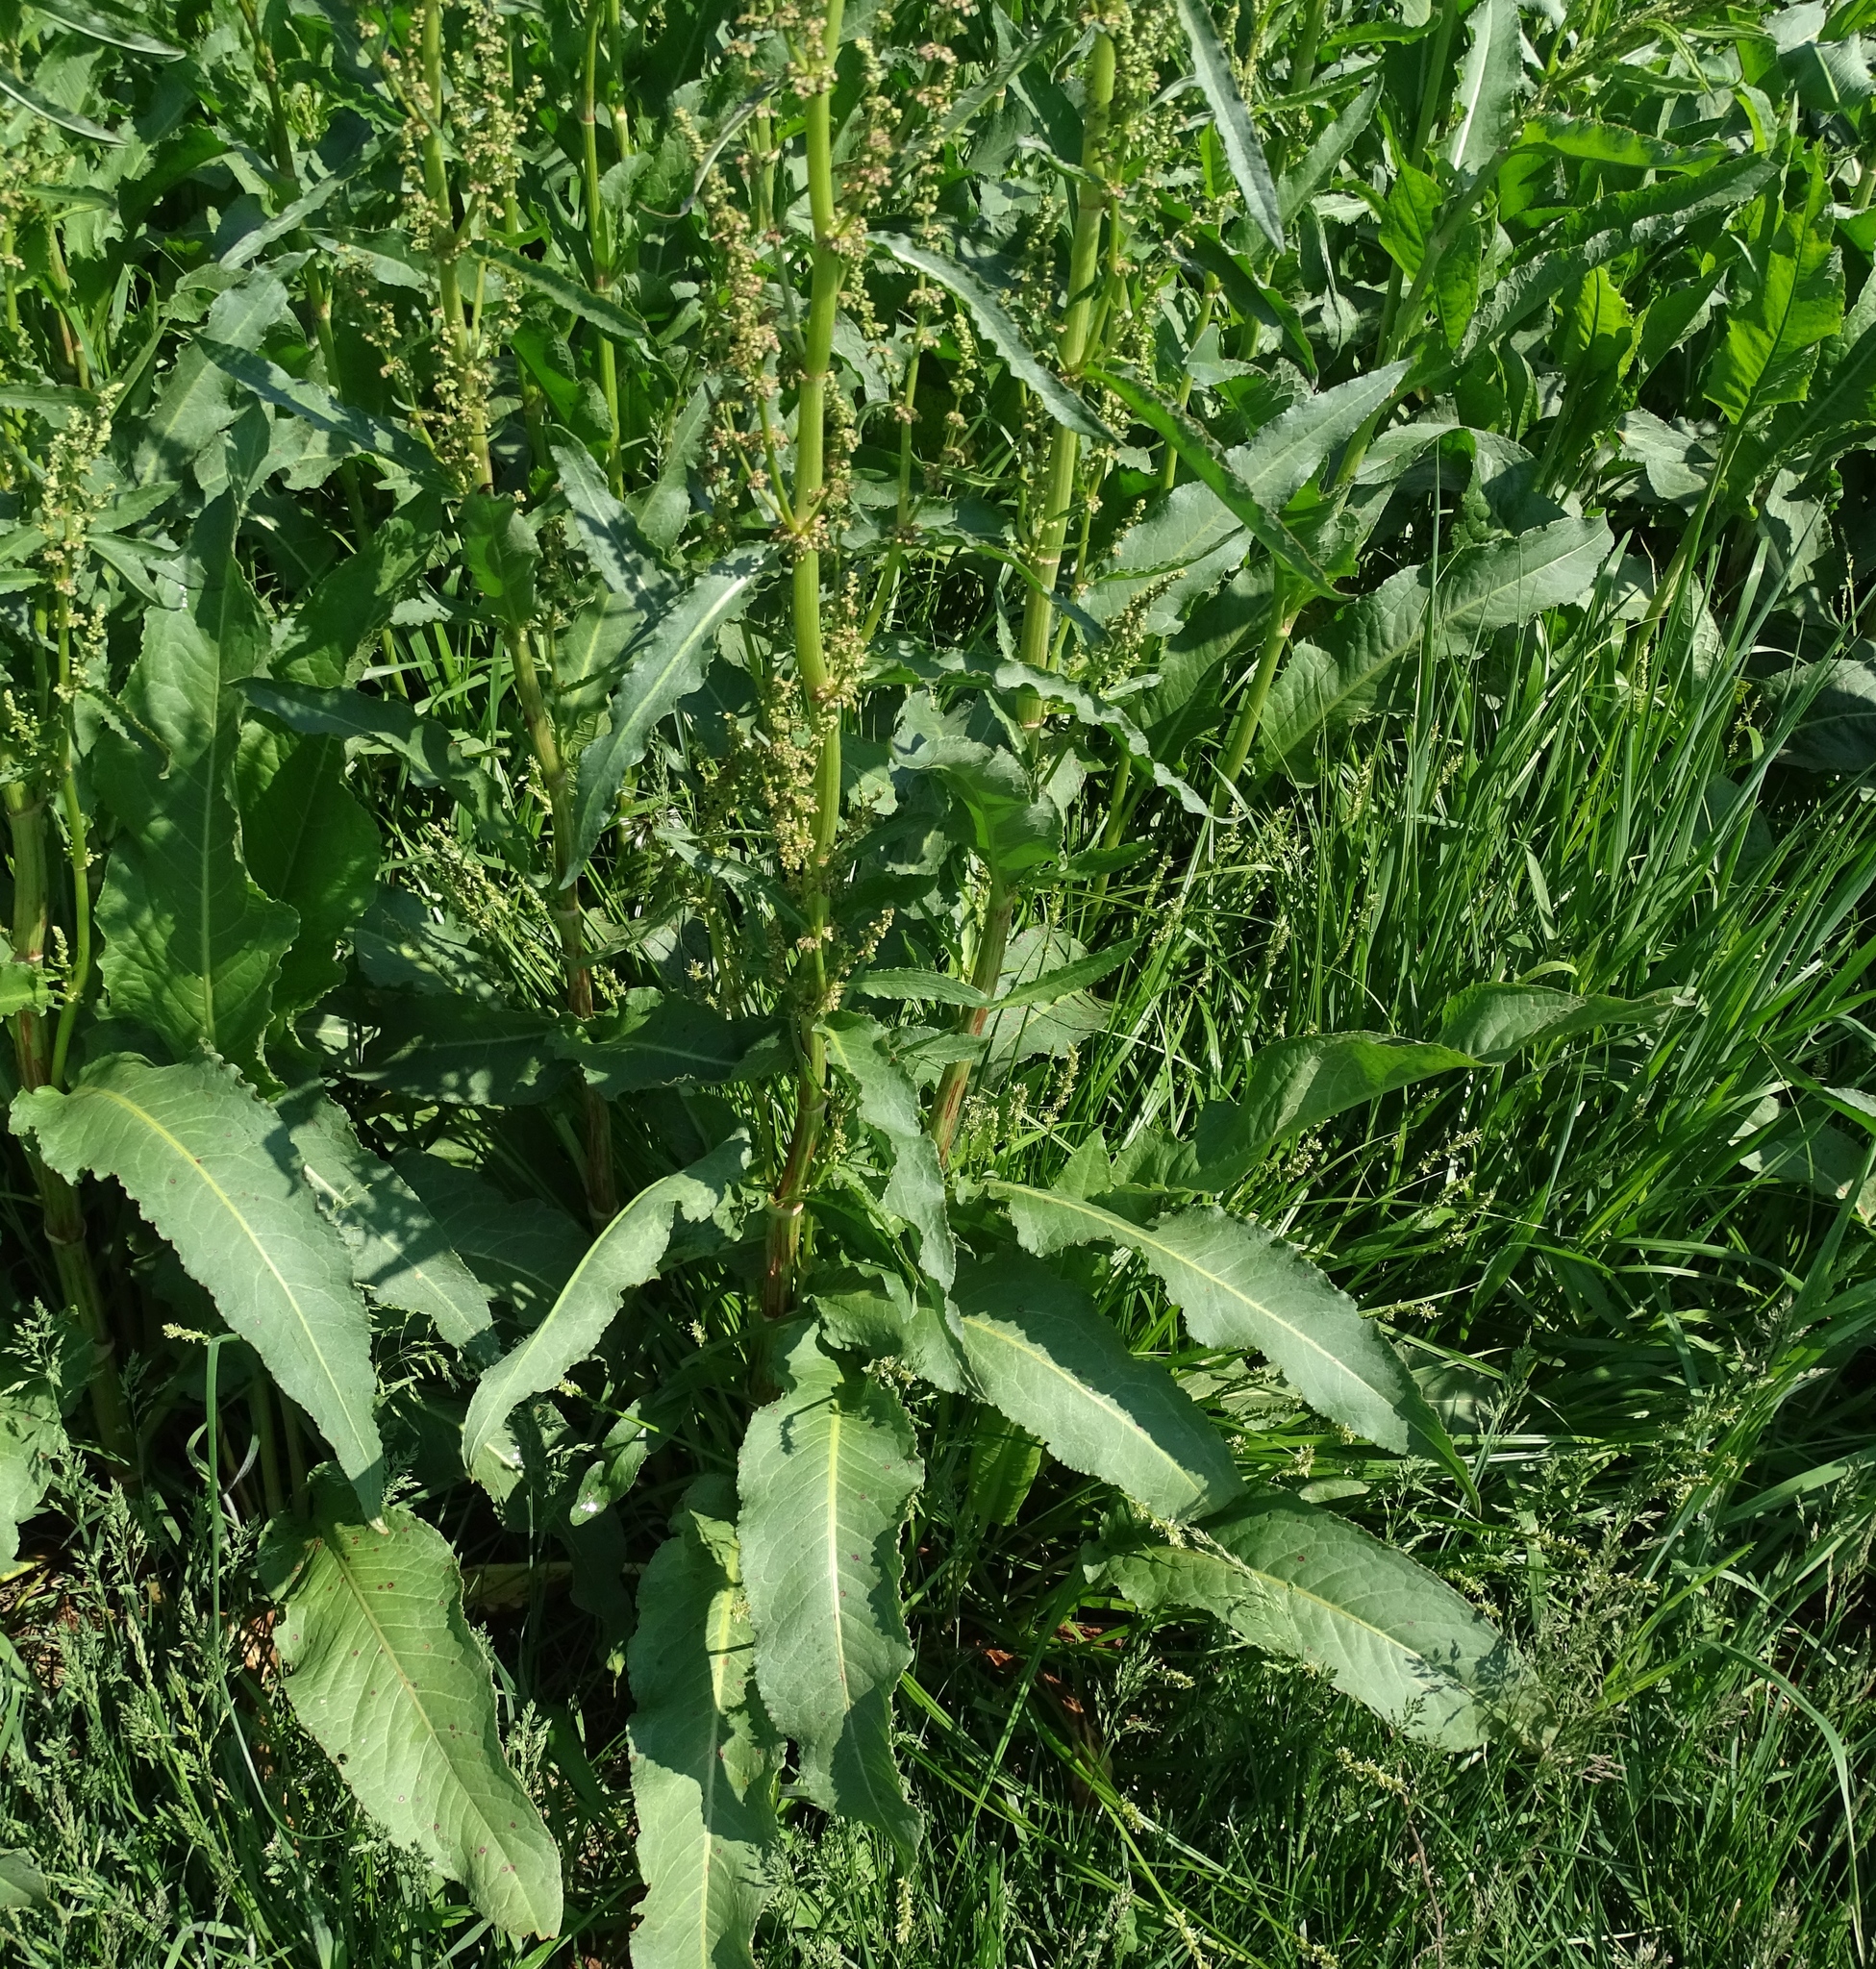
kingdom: Plantae
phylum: Tracheophyta
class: Magnoliopsida
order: Caryophyllales
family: Polygonaceae
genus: Rumex
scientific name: Rumex crispus
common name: Curled dock
